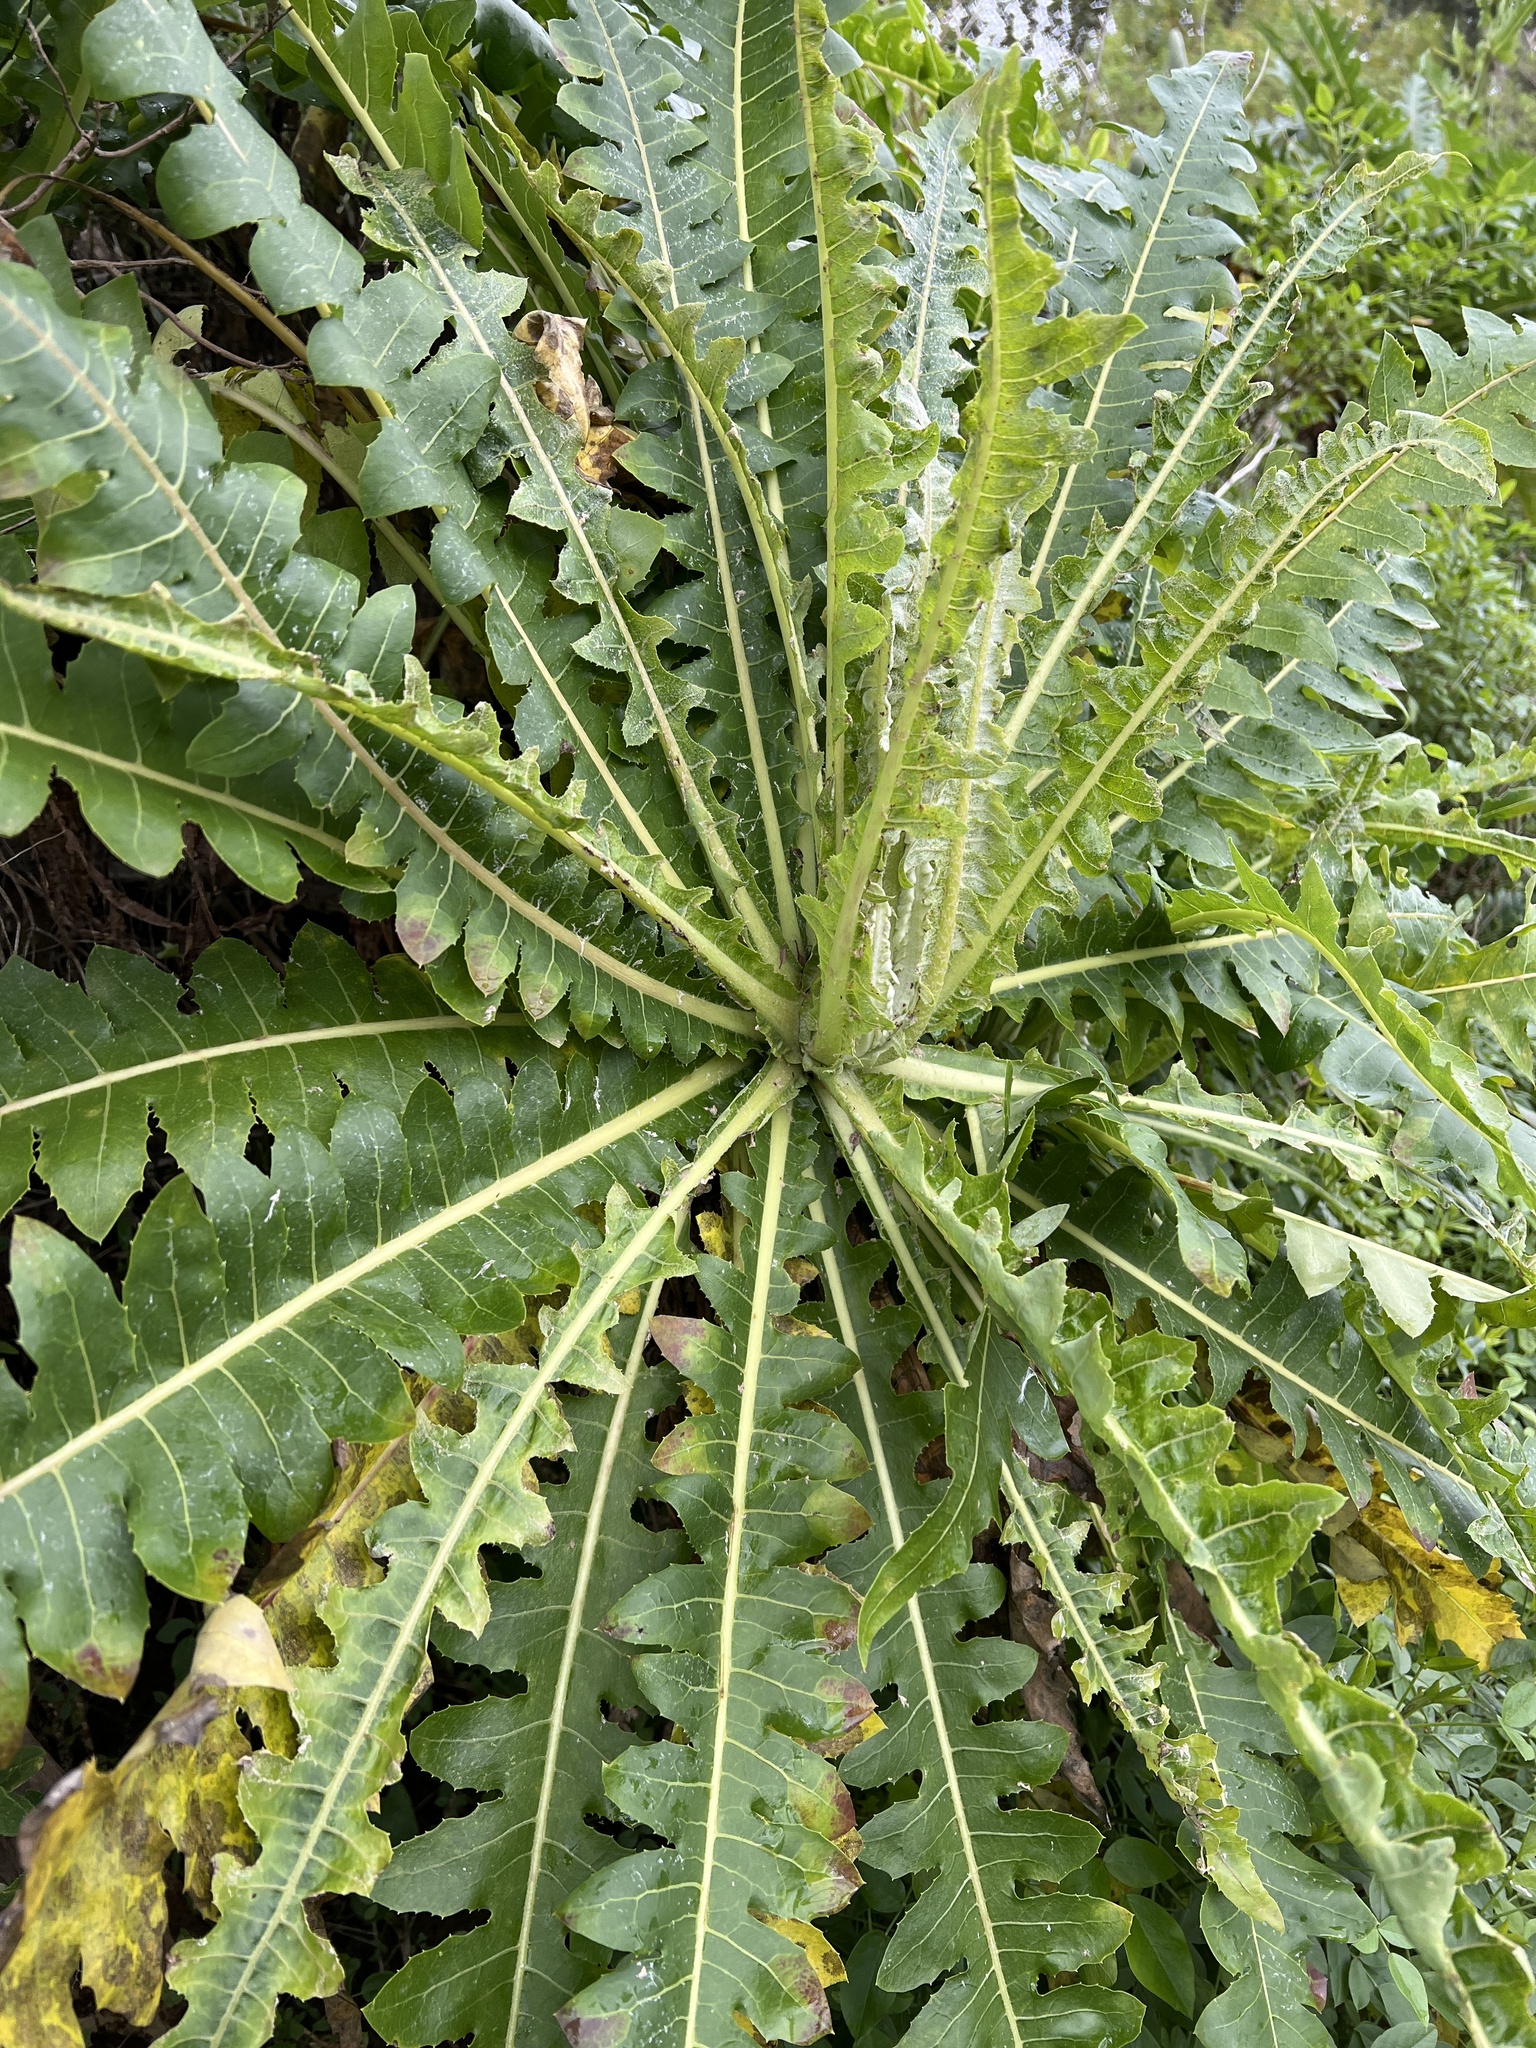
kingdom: Plantae
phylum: Tracheophyta
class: Magnoliopsida
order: Asterales
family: Asteraceae
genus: Sonchus
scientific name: Sonchus hierrensis
